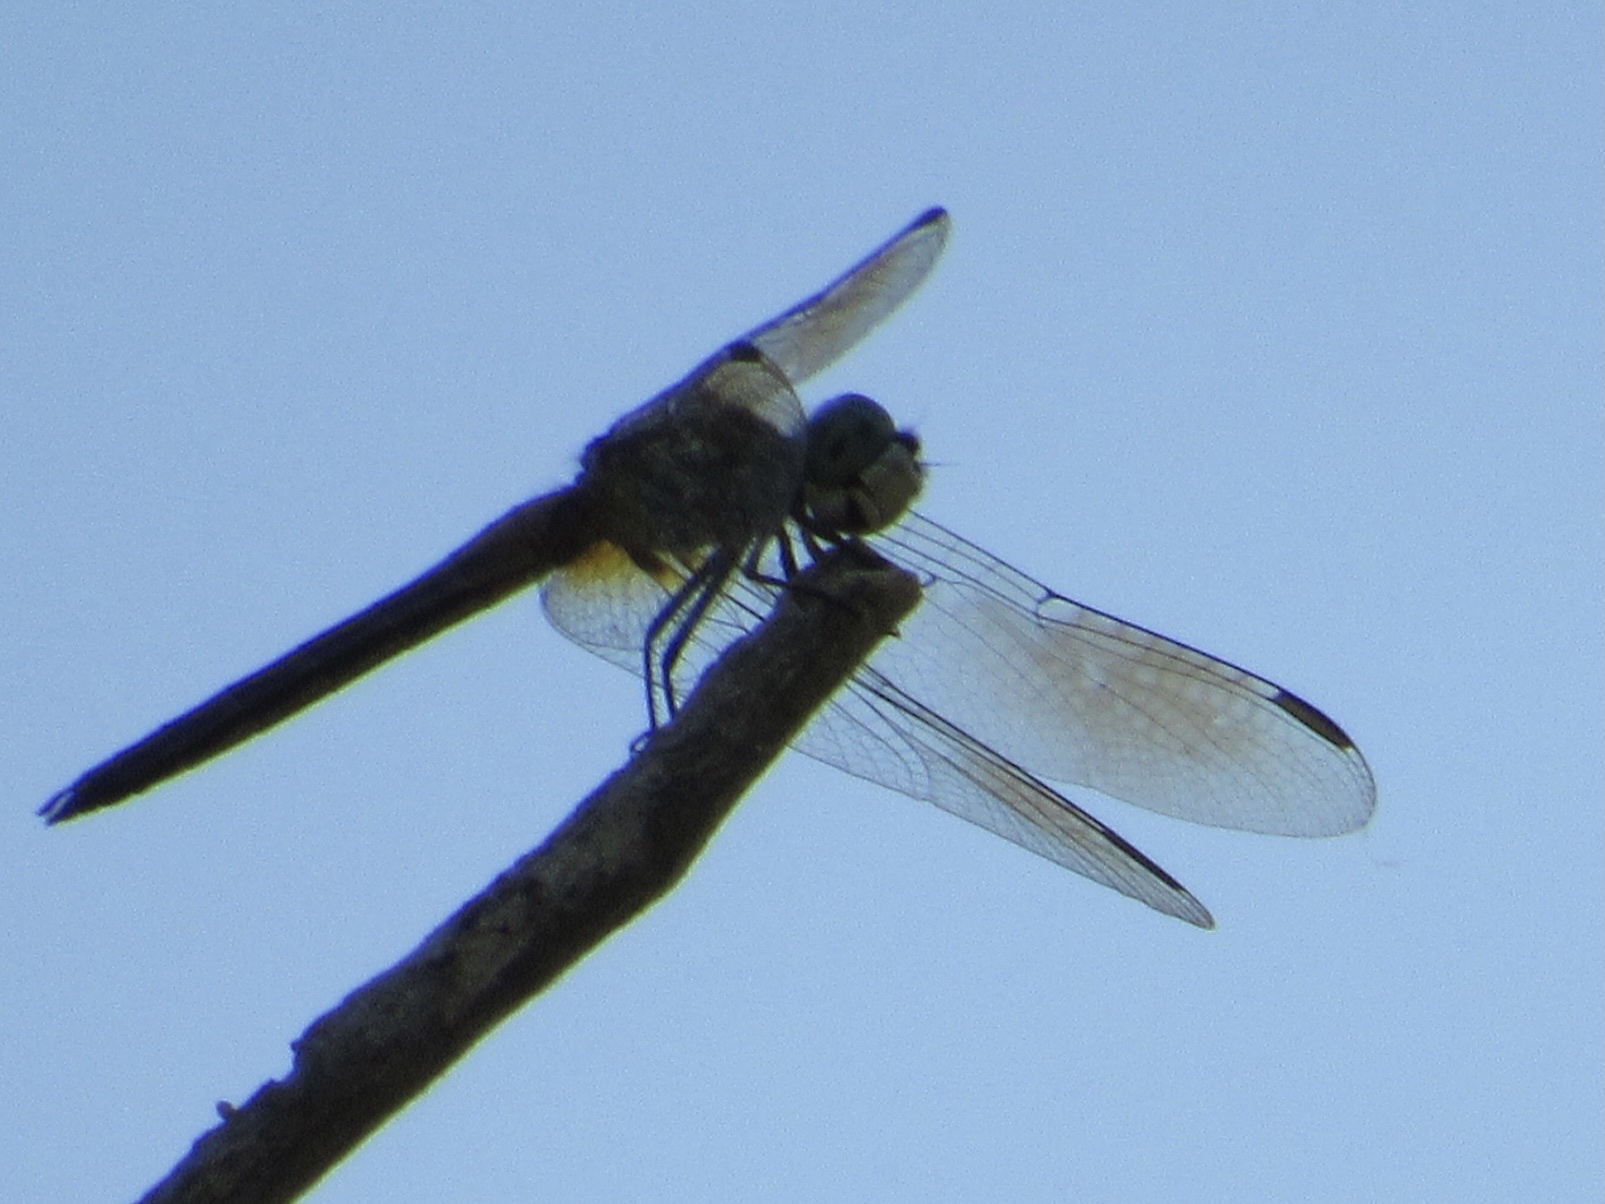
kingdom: Animalia
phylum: Arthropoda
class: Insecta
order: Odonata
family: Libellulidae
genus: Pachydiplax
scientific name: Pachydiplax longipennis
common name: Blue dasher
